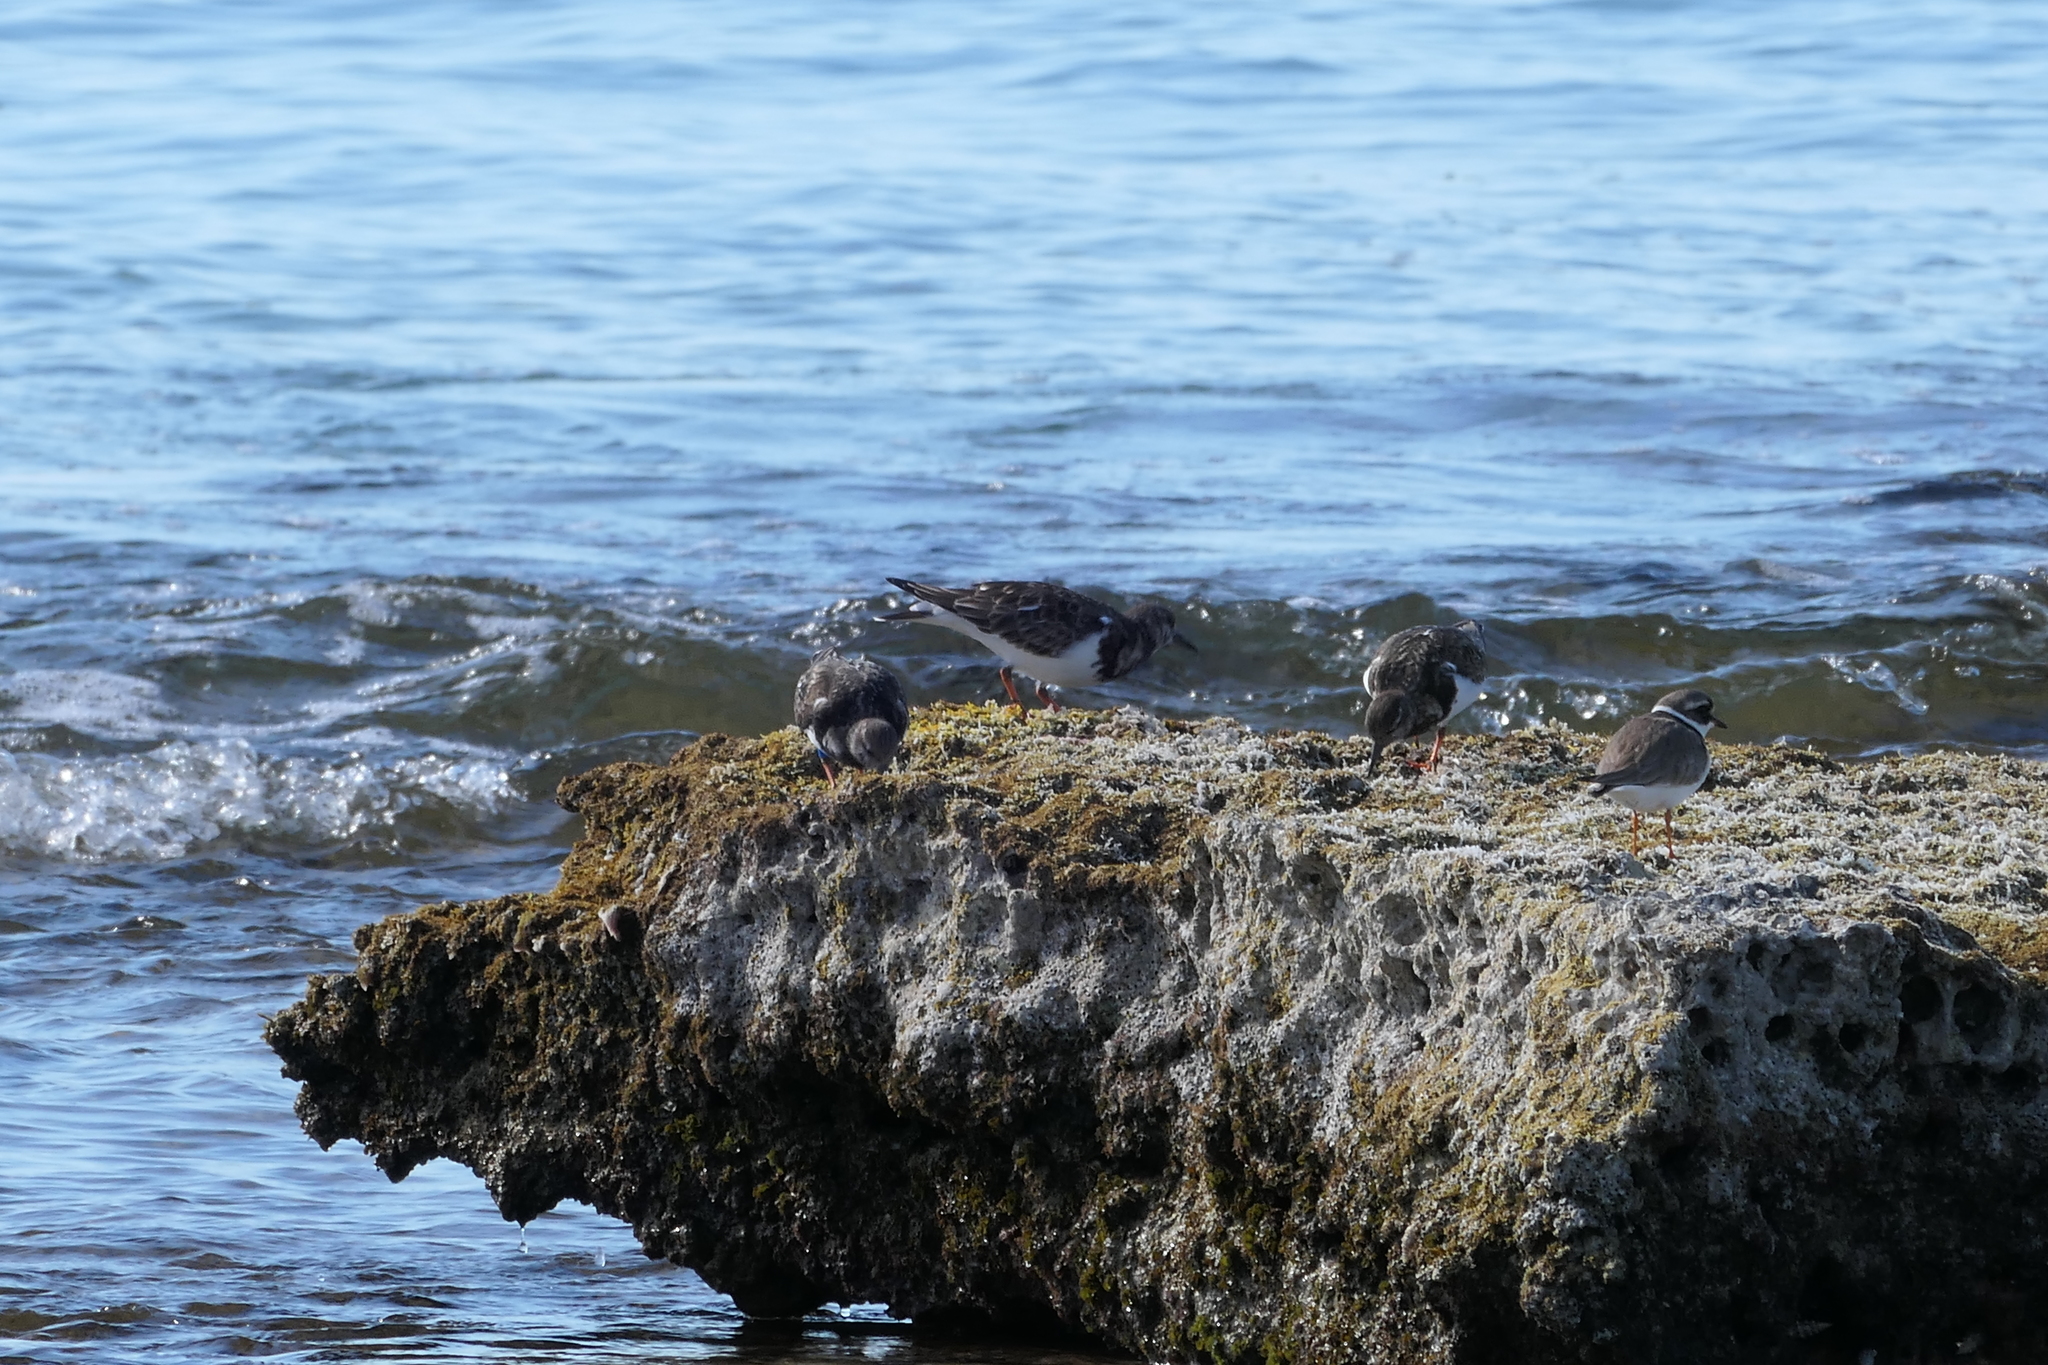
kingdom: Animalia
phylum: Chordata
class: Aves
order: Charadriiformes
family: Scolopacidae
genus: Arenaria
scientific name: Arenaria interpres
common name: Ruddy turnstone
